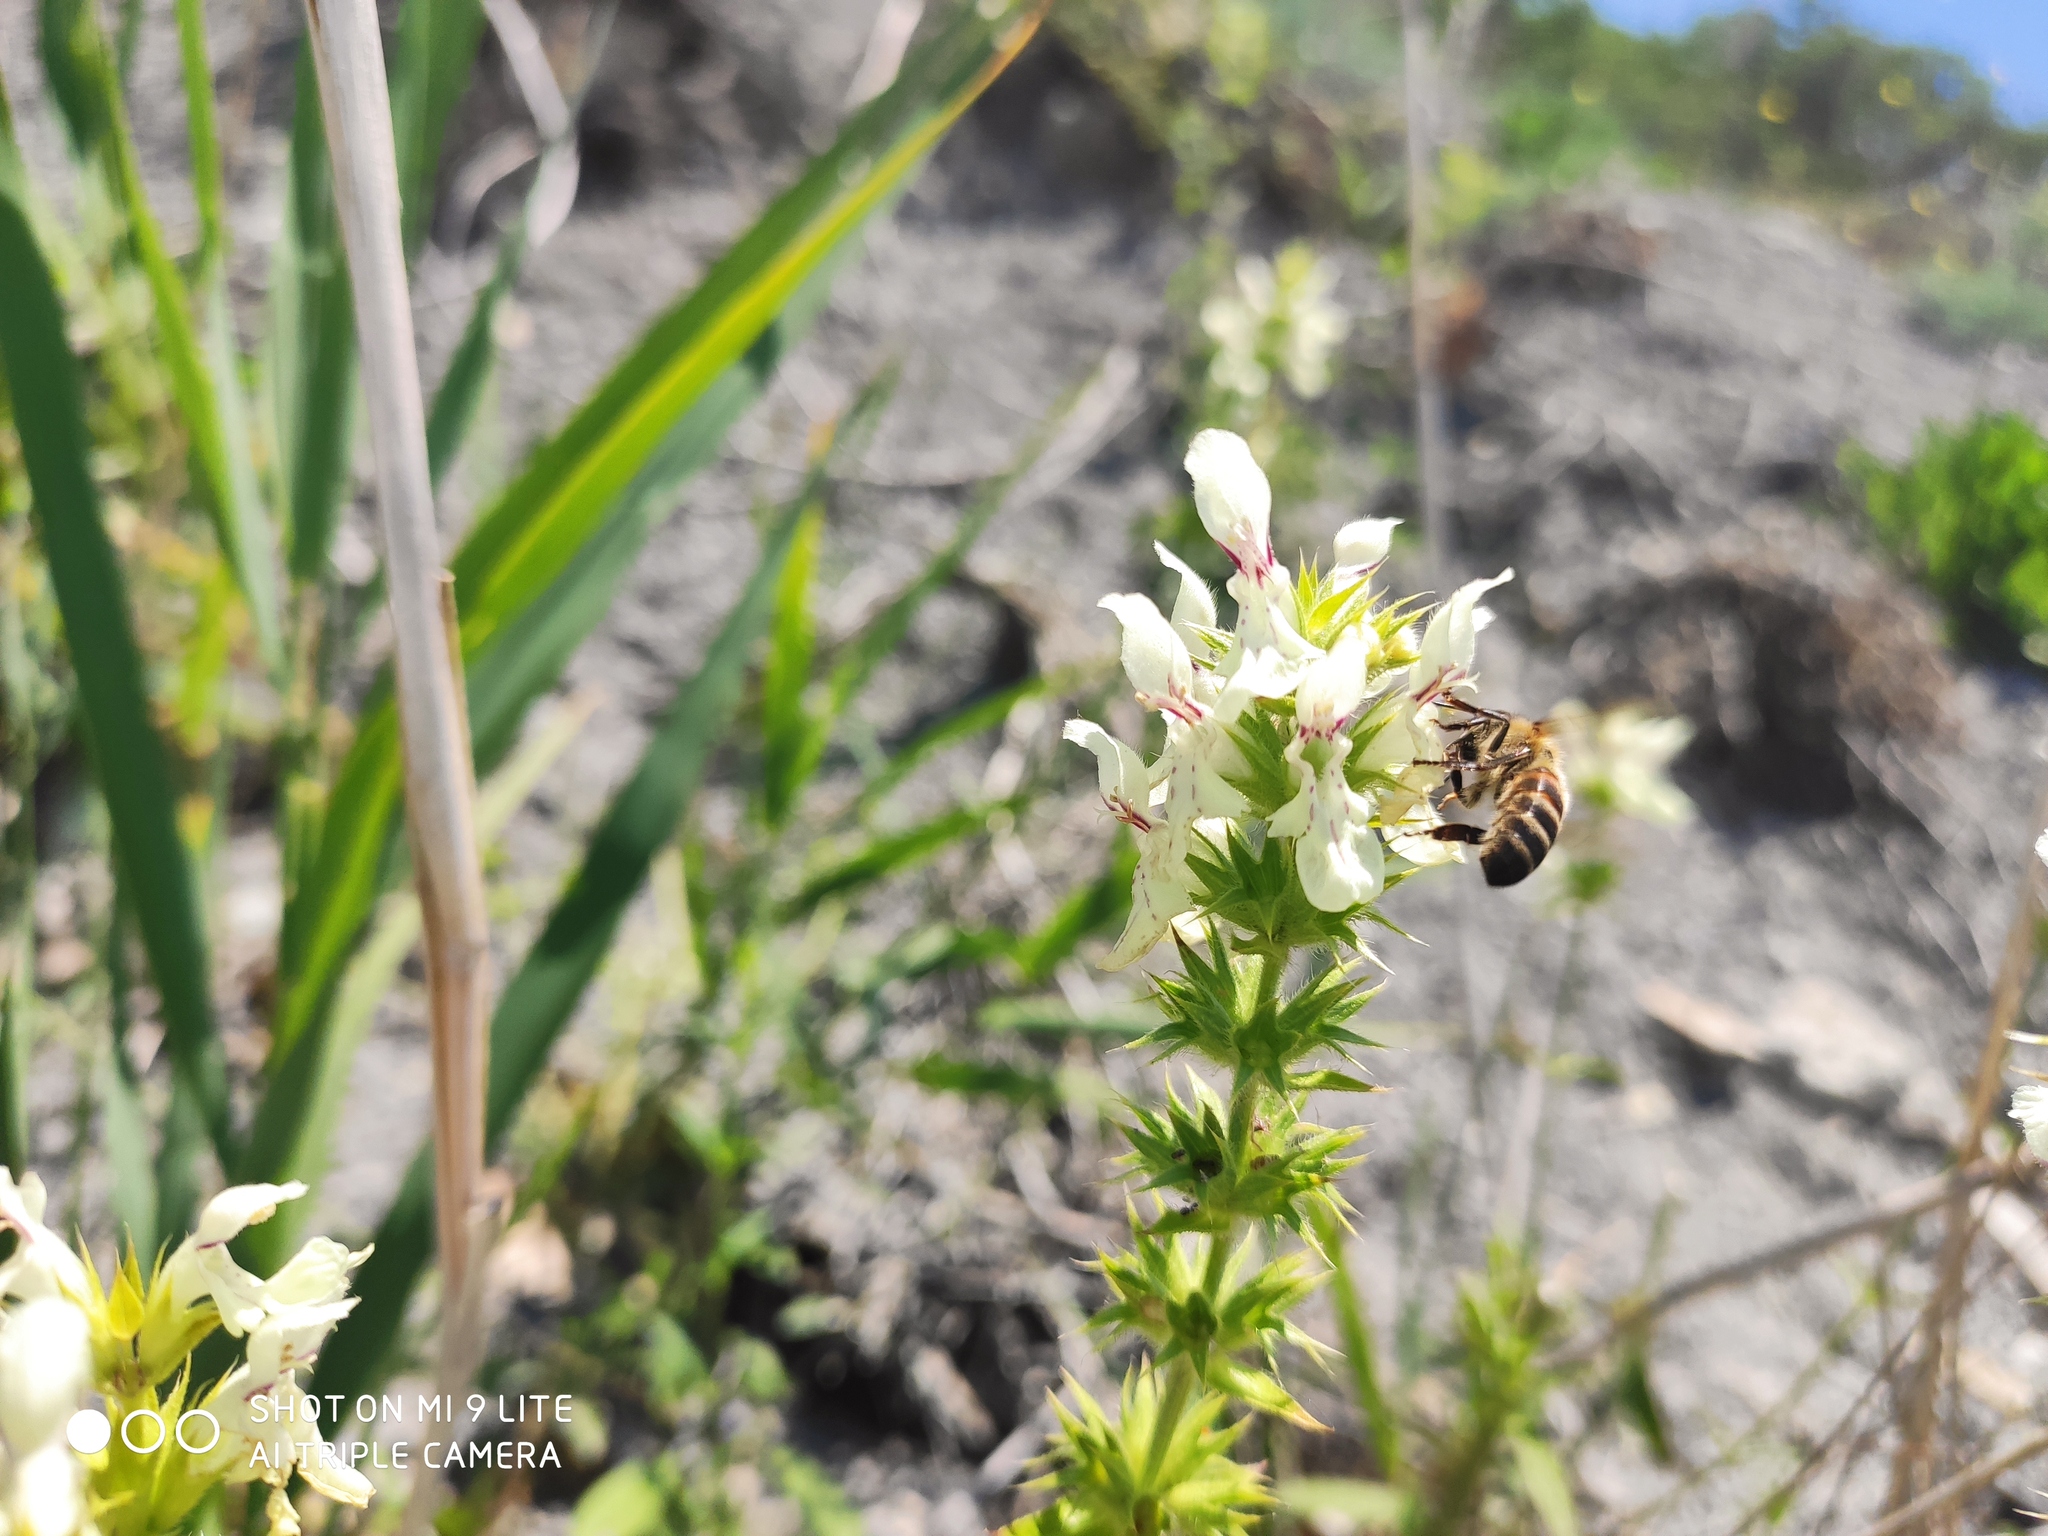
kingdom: Plantae
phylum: Tracheophyta
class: Magnoliopsida
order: Lamiales
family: Lamiaceae
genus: Stachys
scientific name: Stachys atherocalyx
